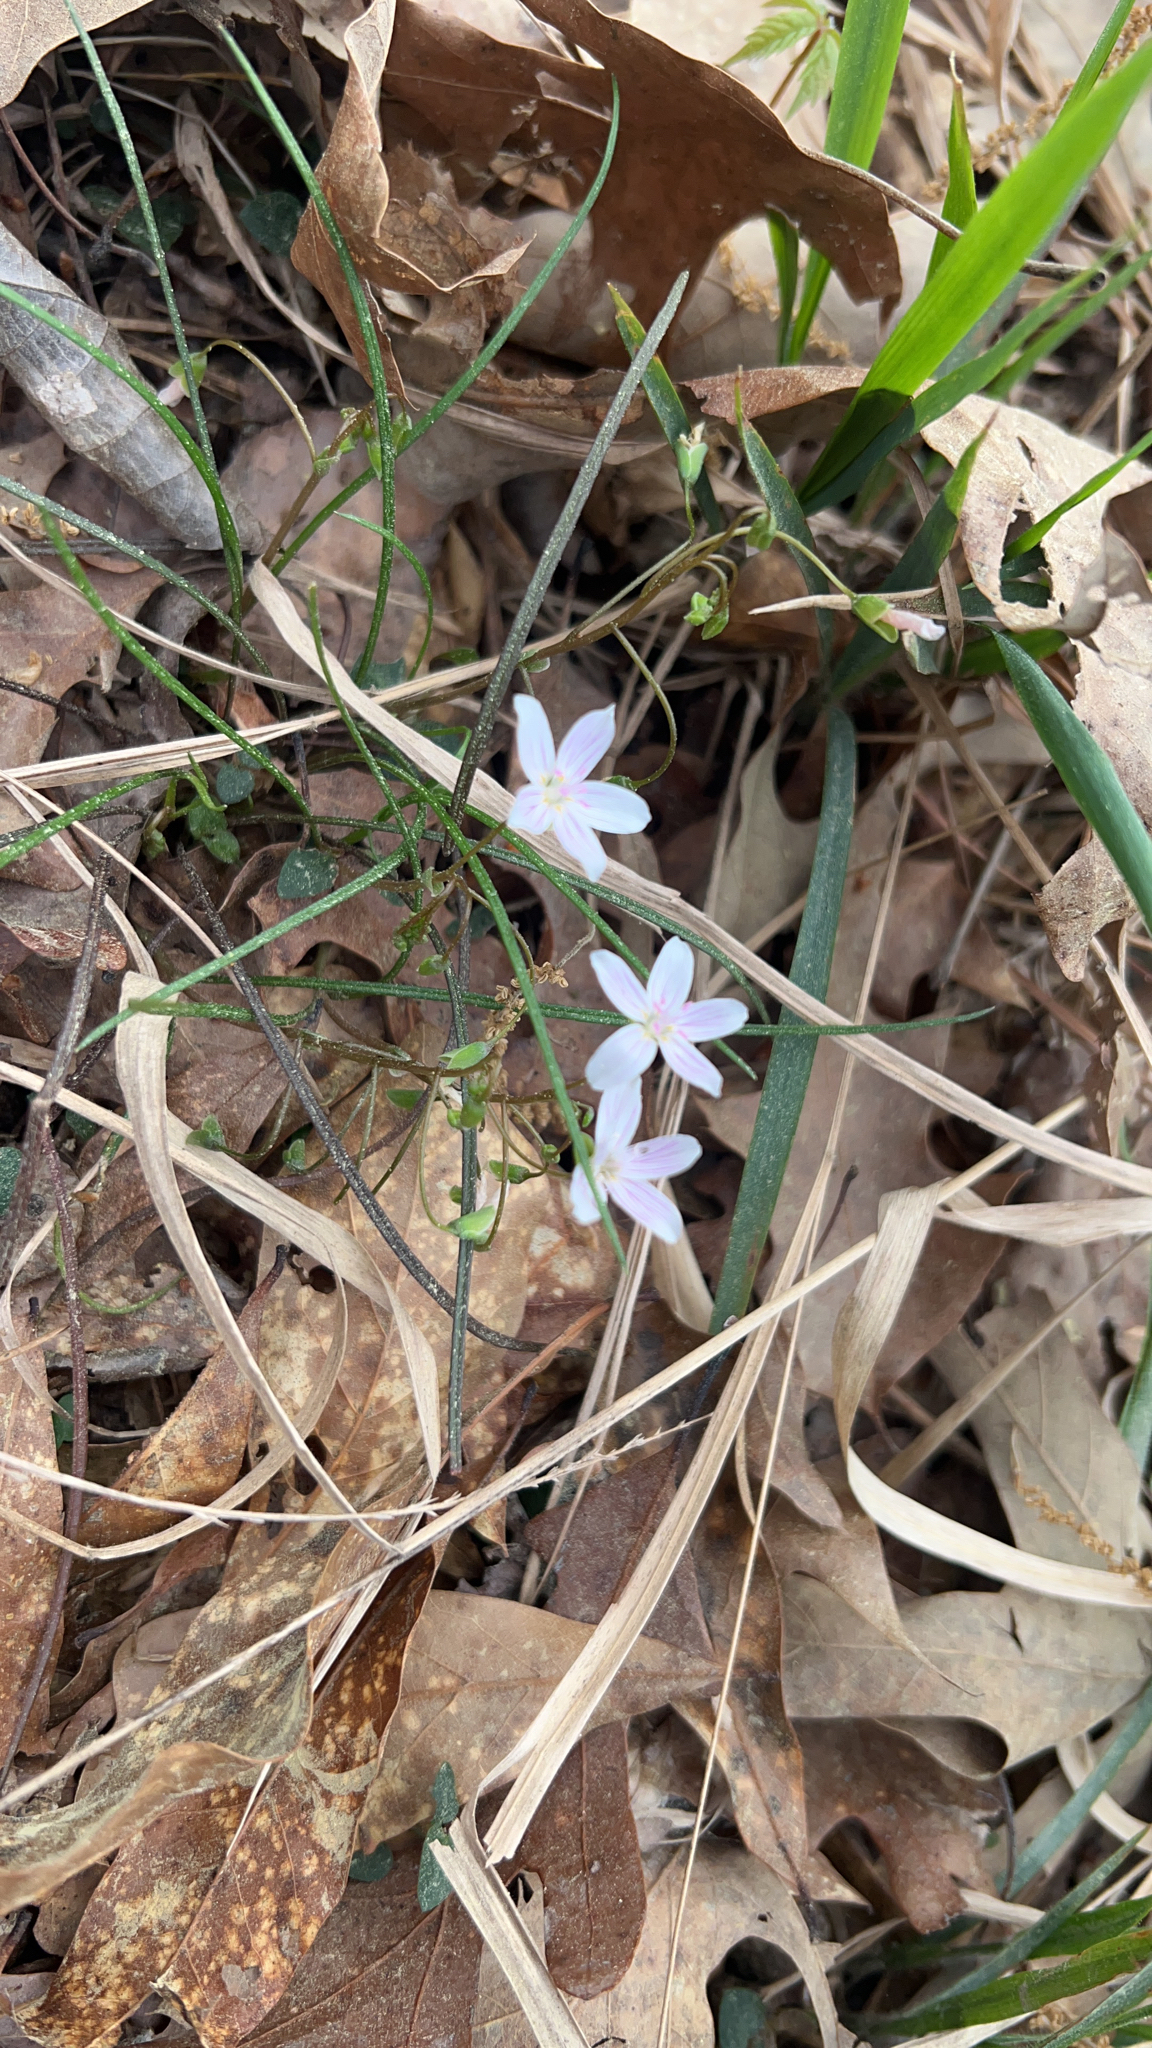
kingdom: Plantae
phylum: Tracheophyta
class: Magnoliopsida
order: Caryophyllales
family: Montiaceae
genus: Claytonia
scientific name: Claytonia virginica
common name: Virginia springbeauty
